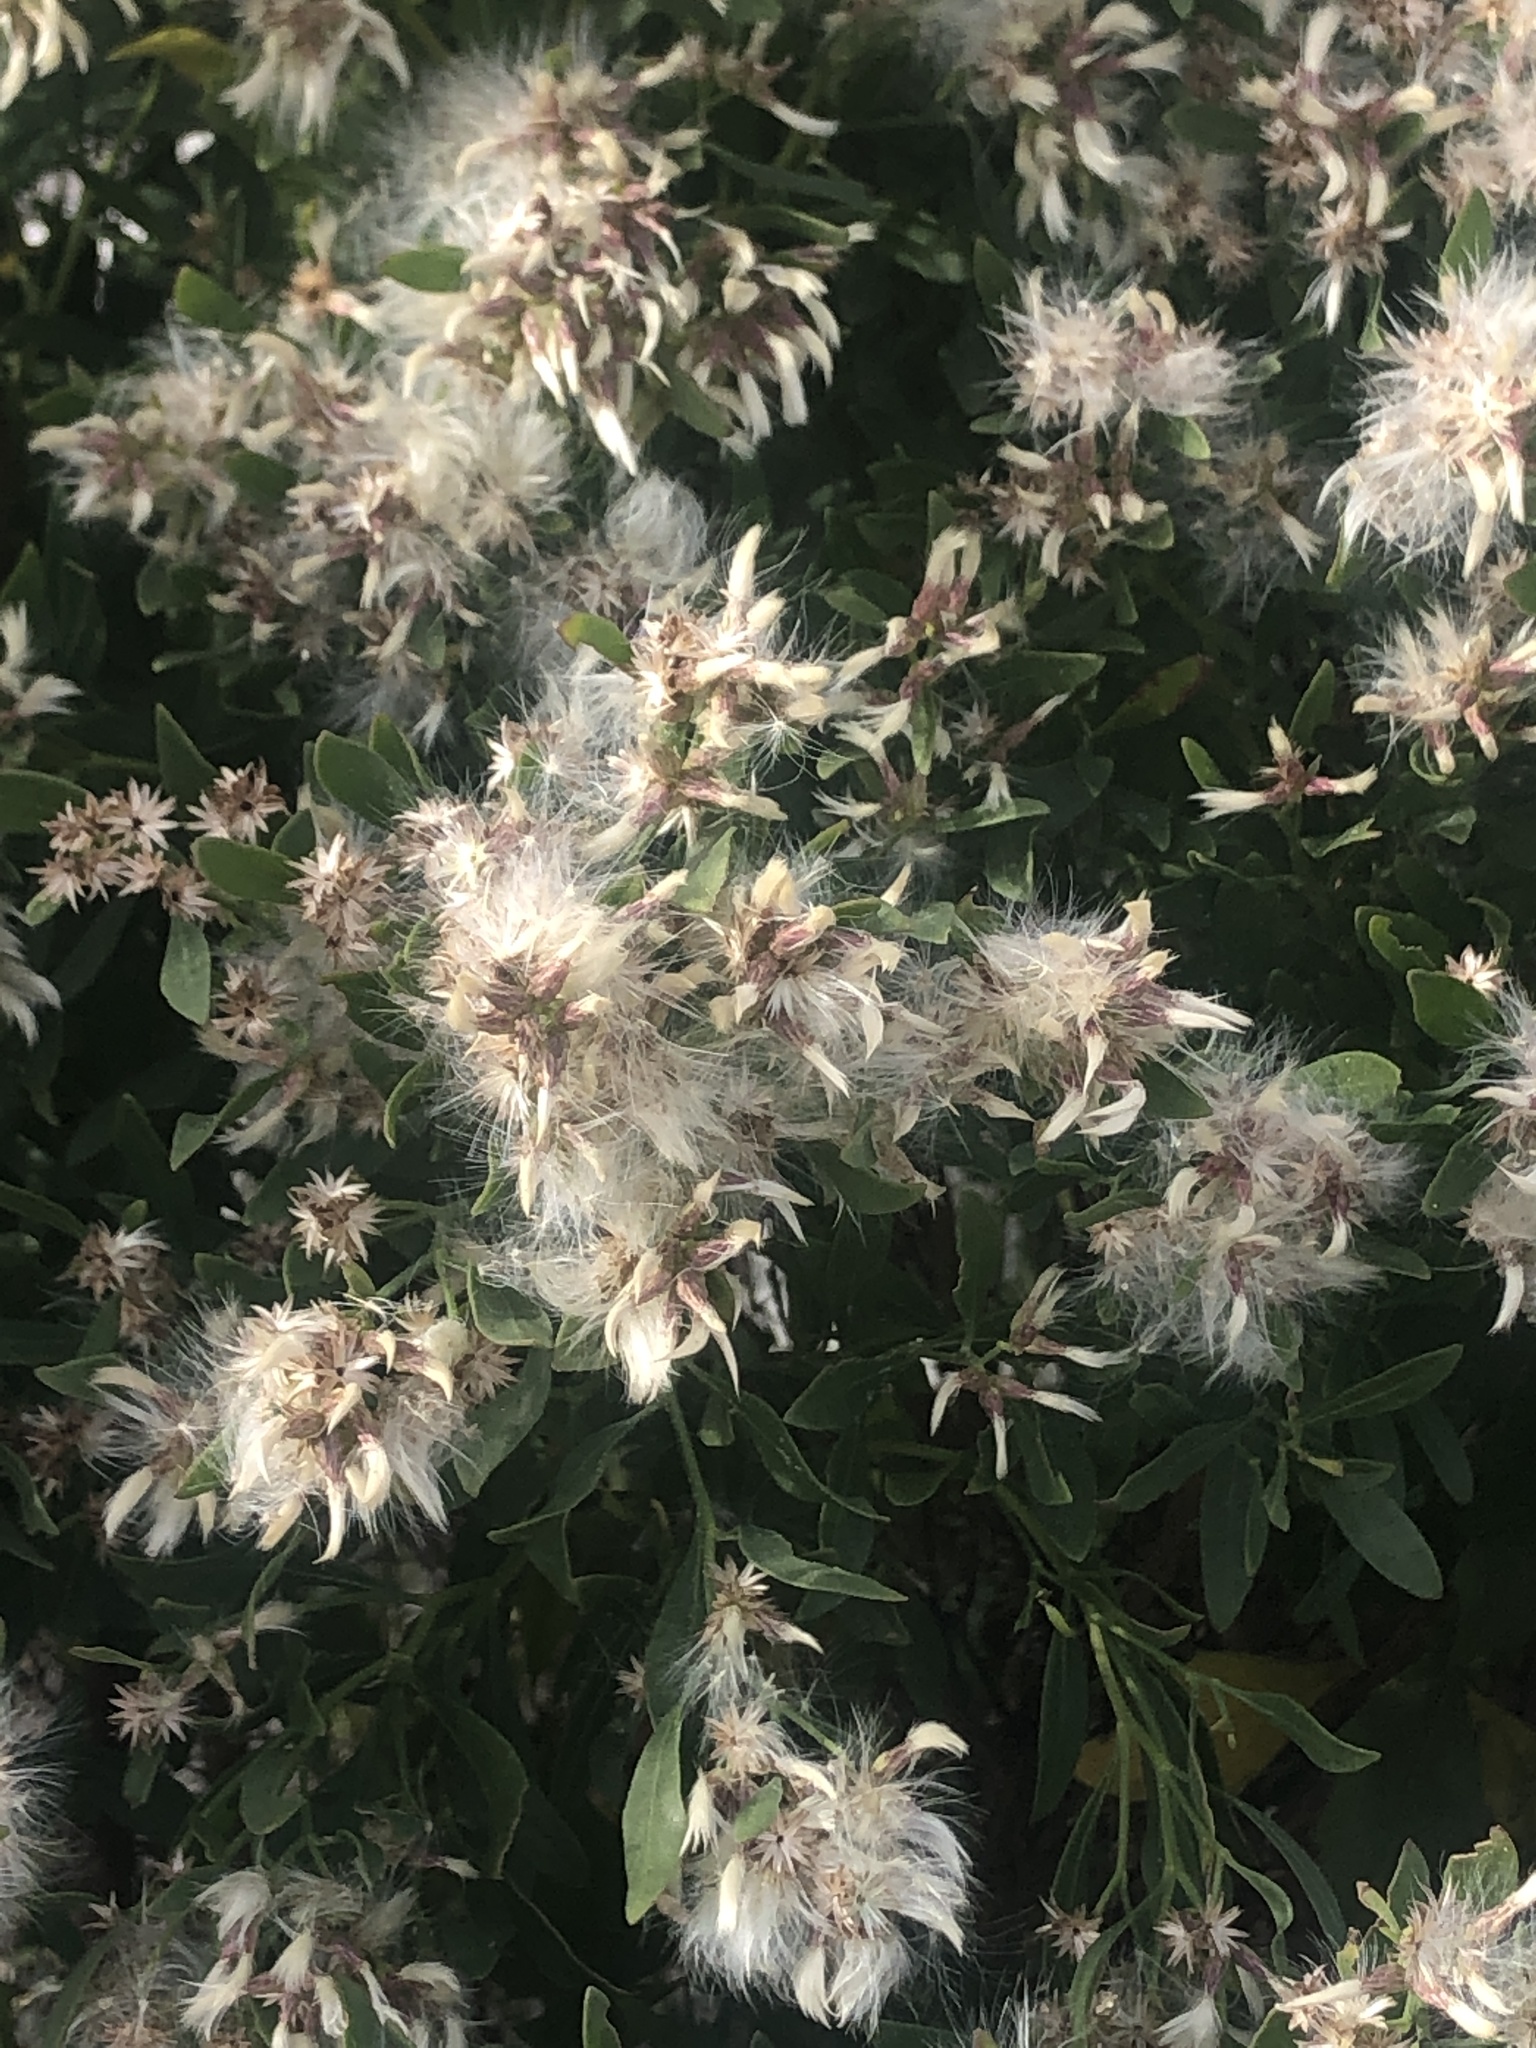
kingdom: Plantae
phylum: Tracheophyta
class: Magnoliopsida
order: Asterales
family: Asteraceae
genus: Baccharis
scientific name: Baccharis halimifolia
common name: Eastern baccharis
